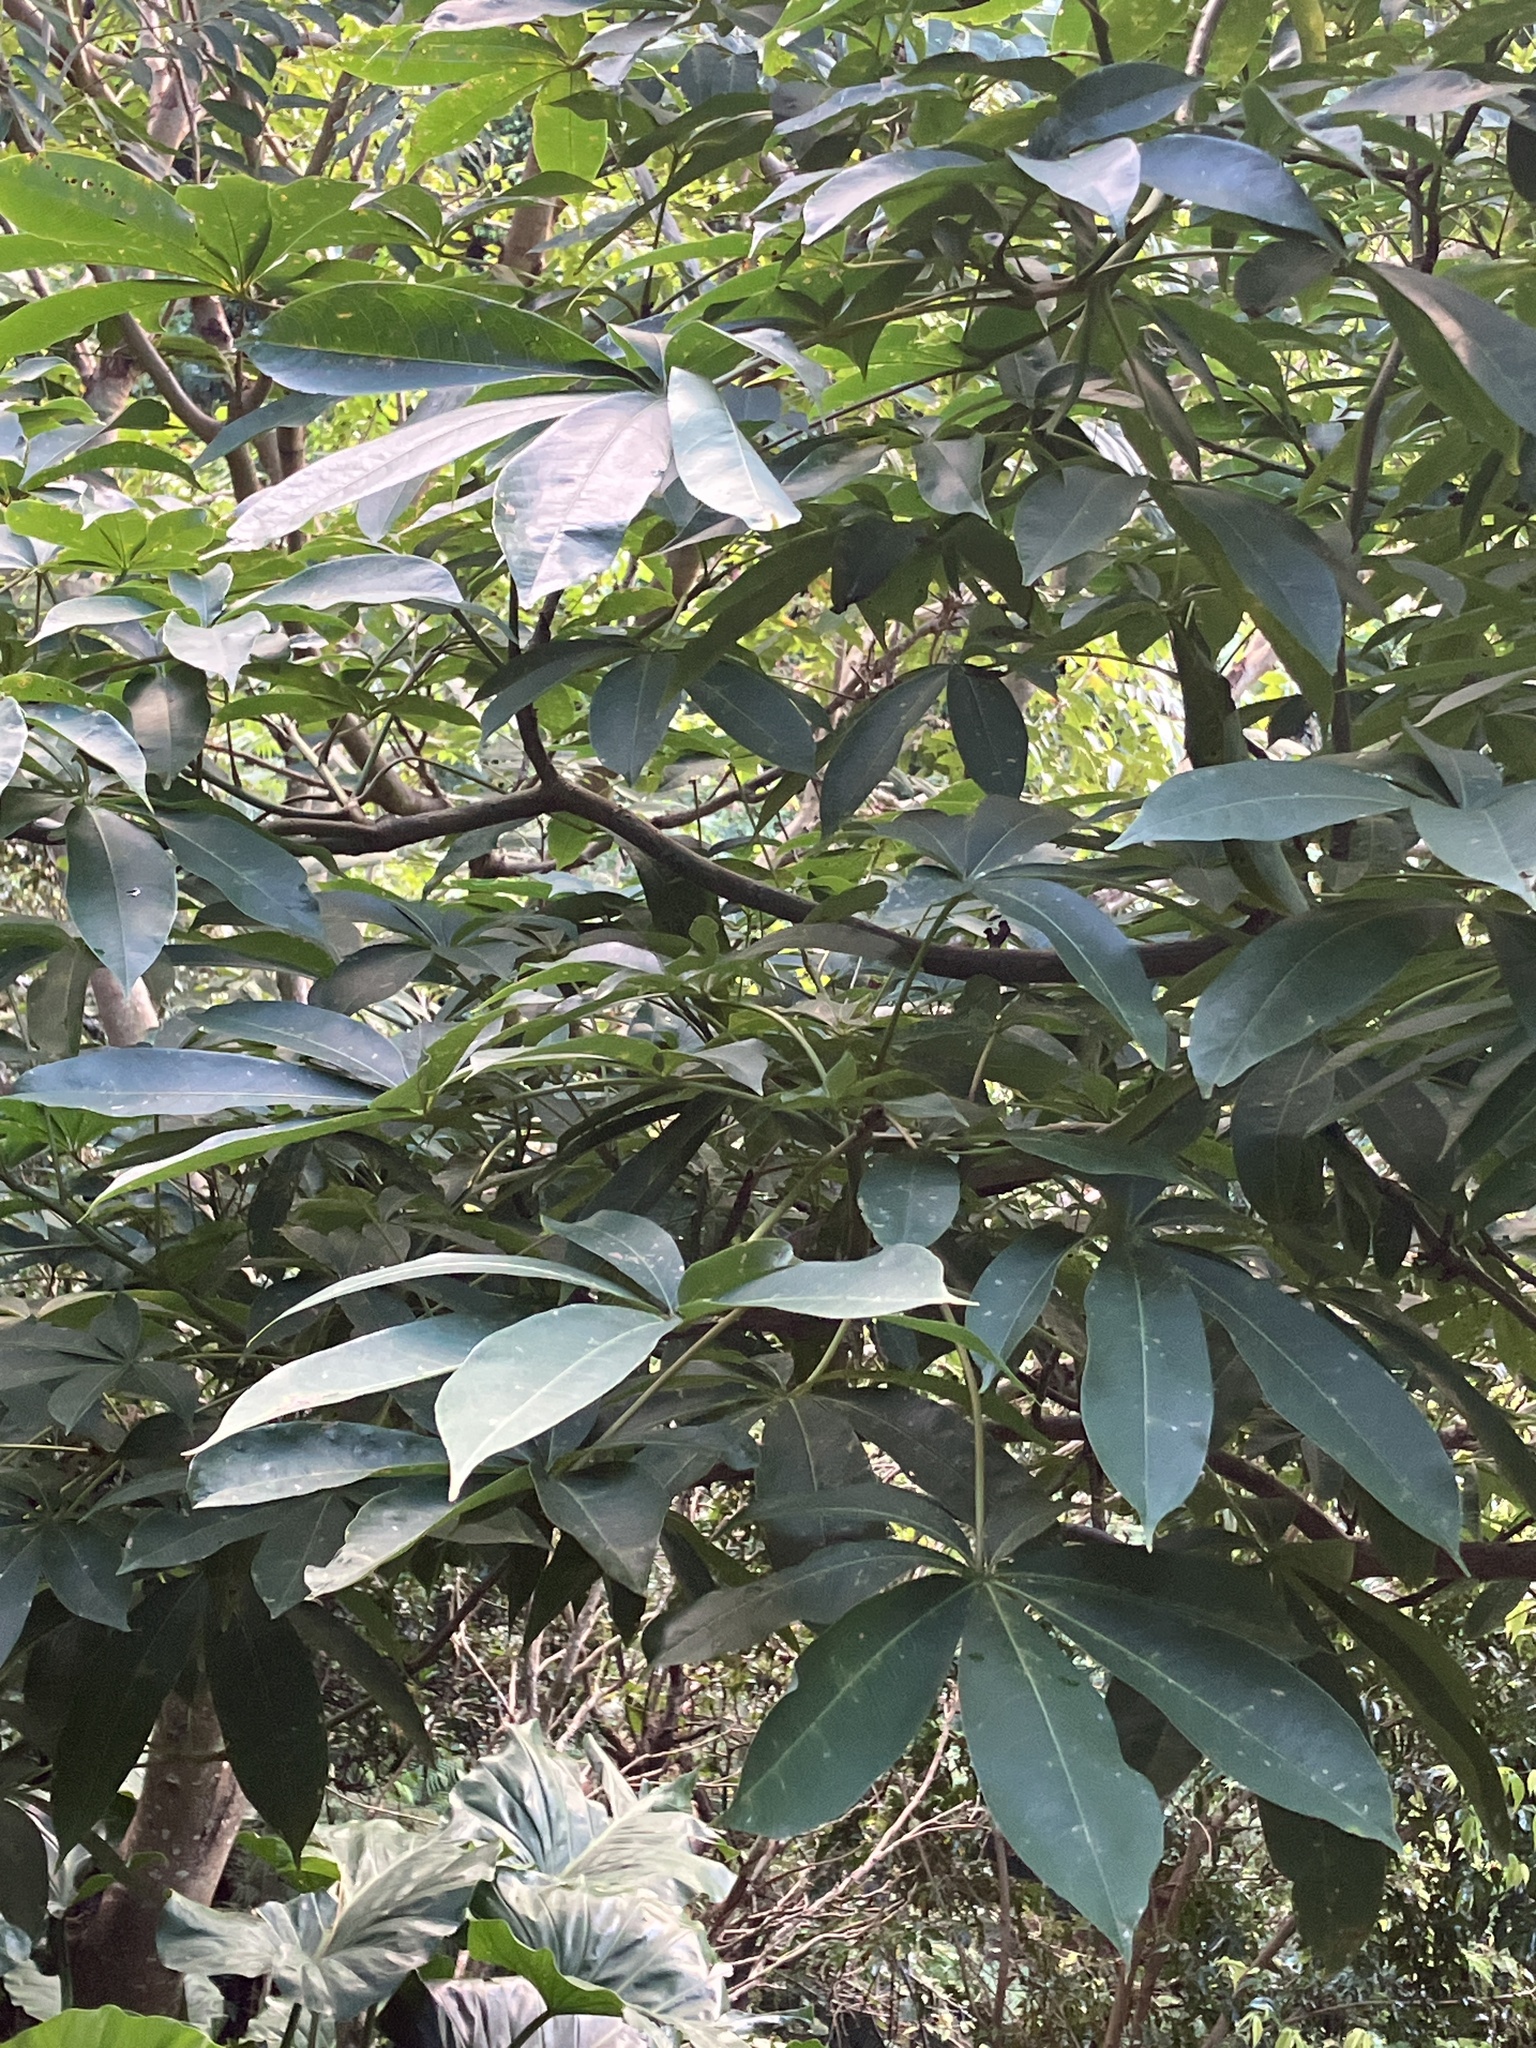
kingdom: Plantae
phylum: Tracheophyta
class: Magnoliopsida
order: Malvales
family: Malvaceae
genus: Ceiba
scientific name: Ceiba pentandra
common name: Kapok
